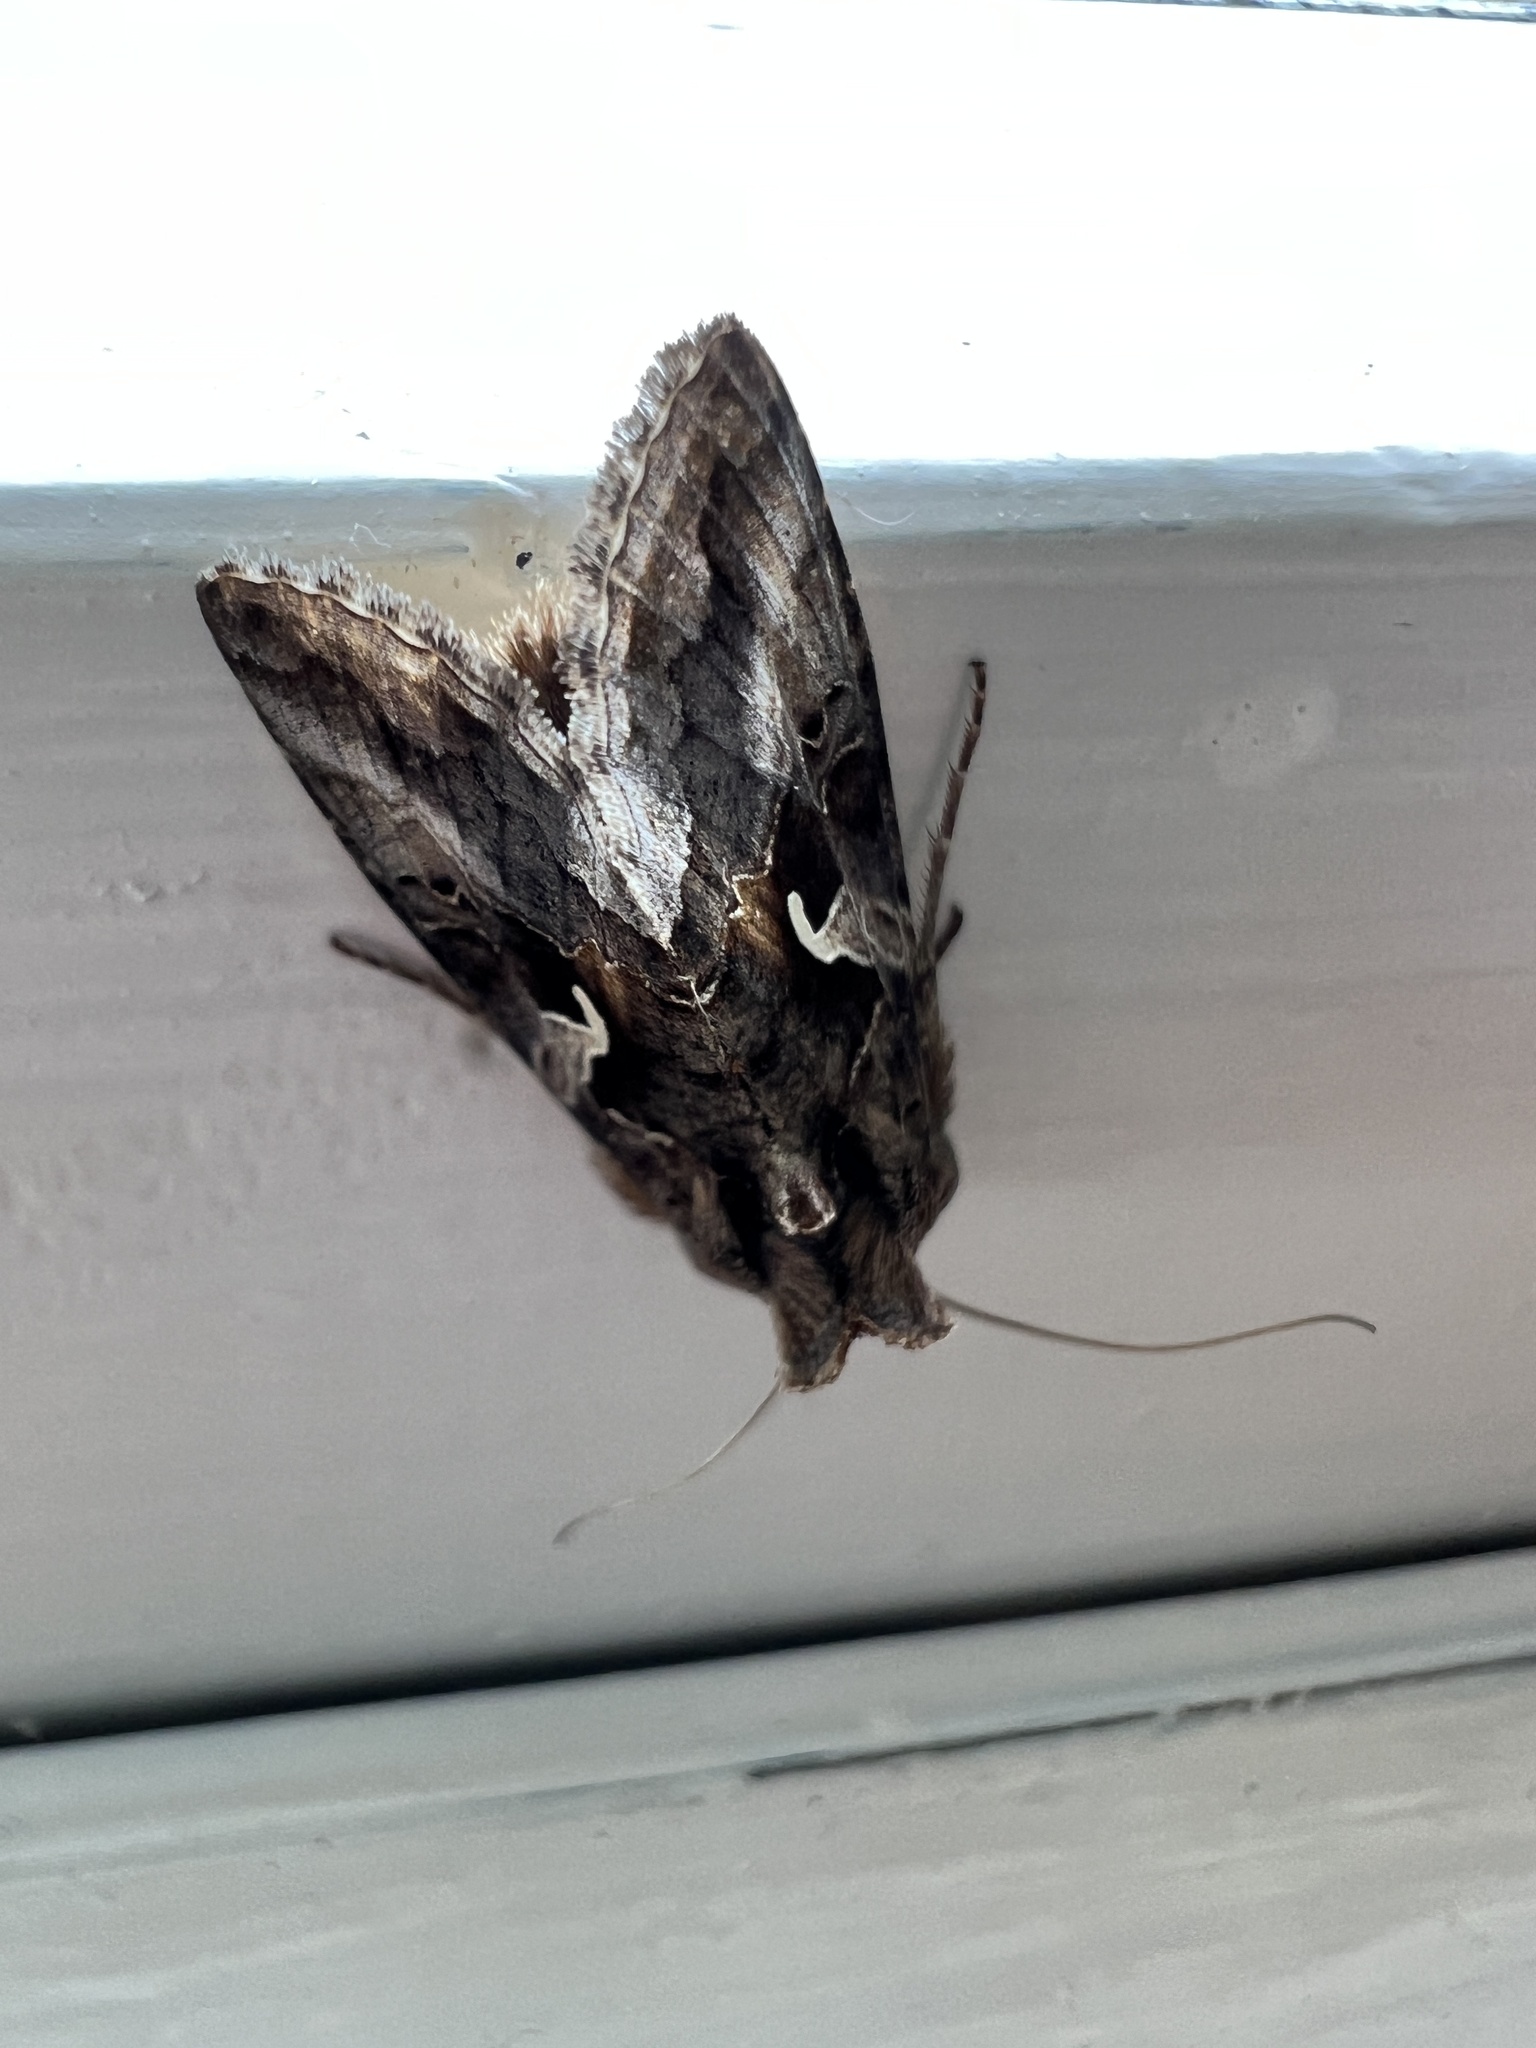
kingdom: Animalia
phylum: Arthropoda
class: Insecta
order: Lepidoptera
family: Noctuidae
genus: Autographa
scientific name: Autographa gamma
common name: Silver y
